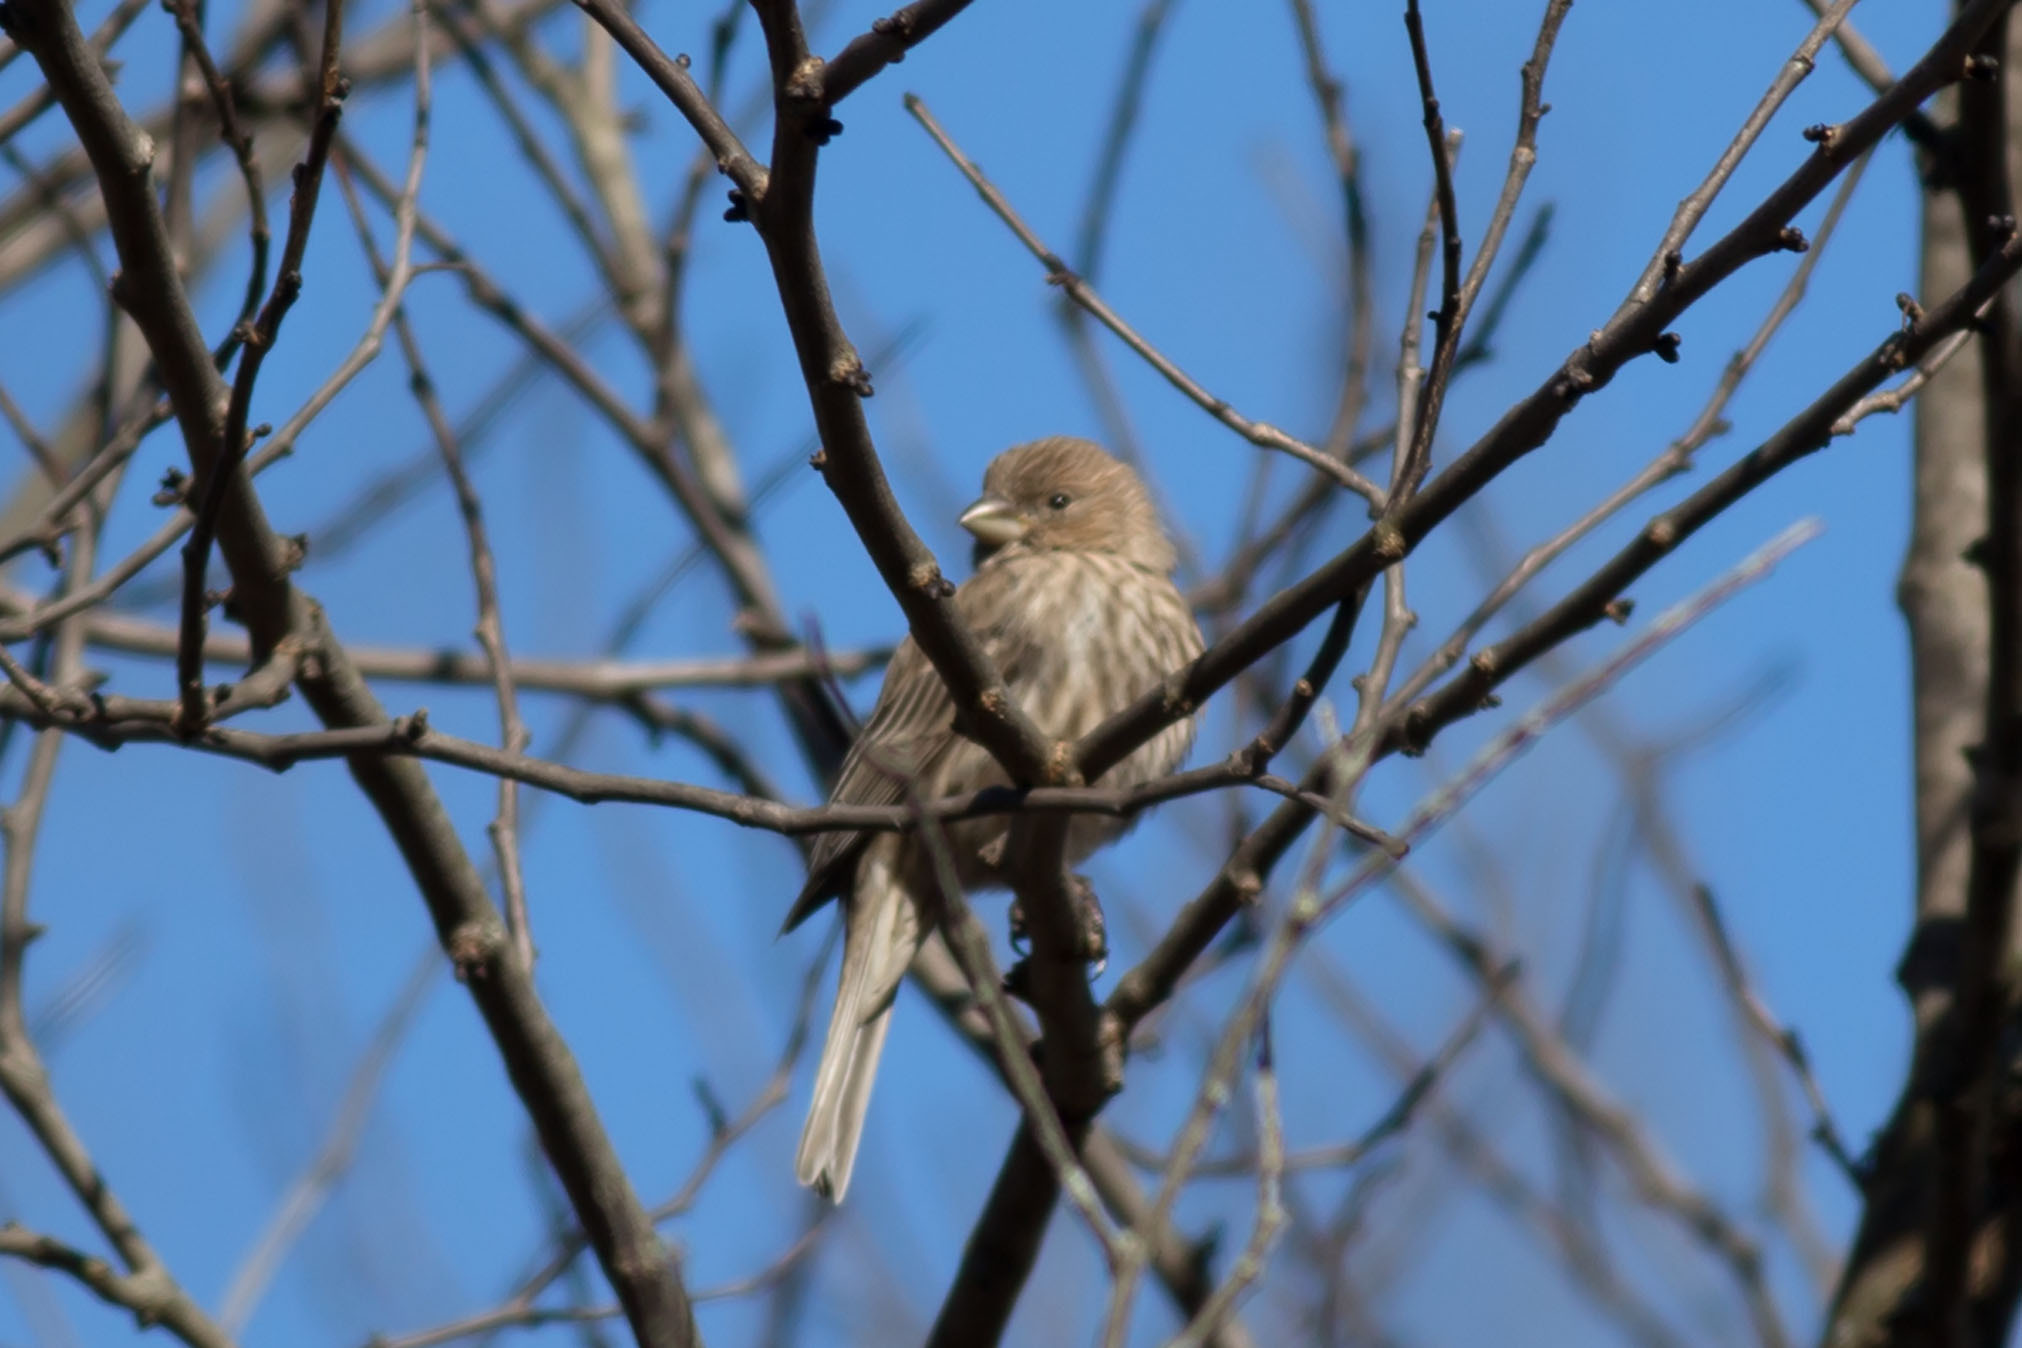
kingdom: Animalia
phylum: Chordata
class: Aves
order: Passeriformes
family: Fringillidae
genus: Haemorhous
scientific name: Haemorhous mexicanus
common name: House finch
